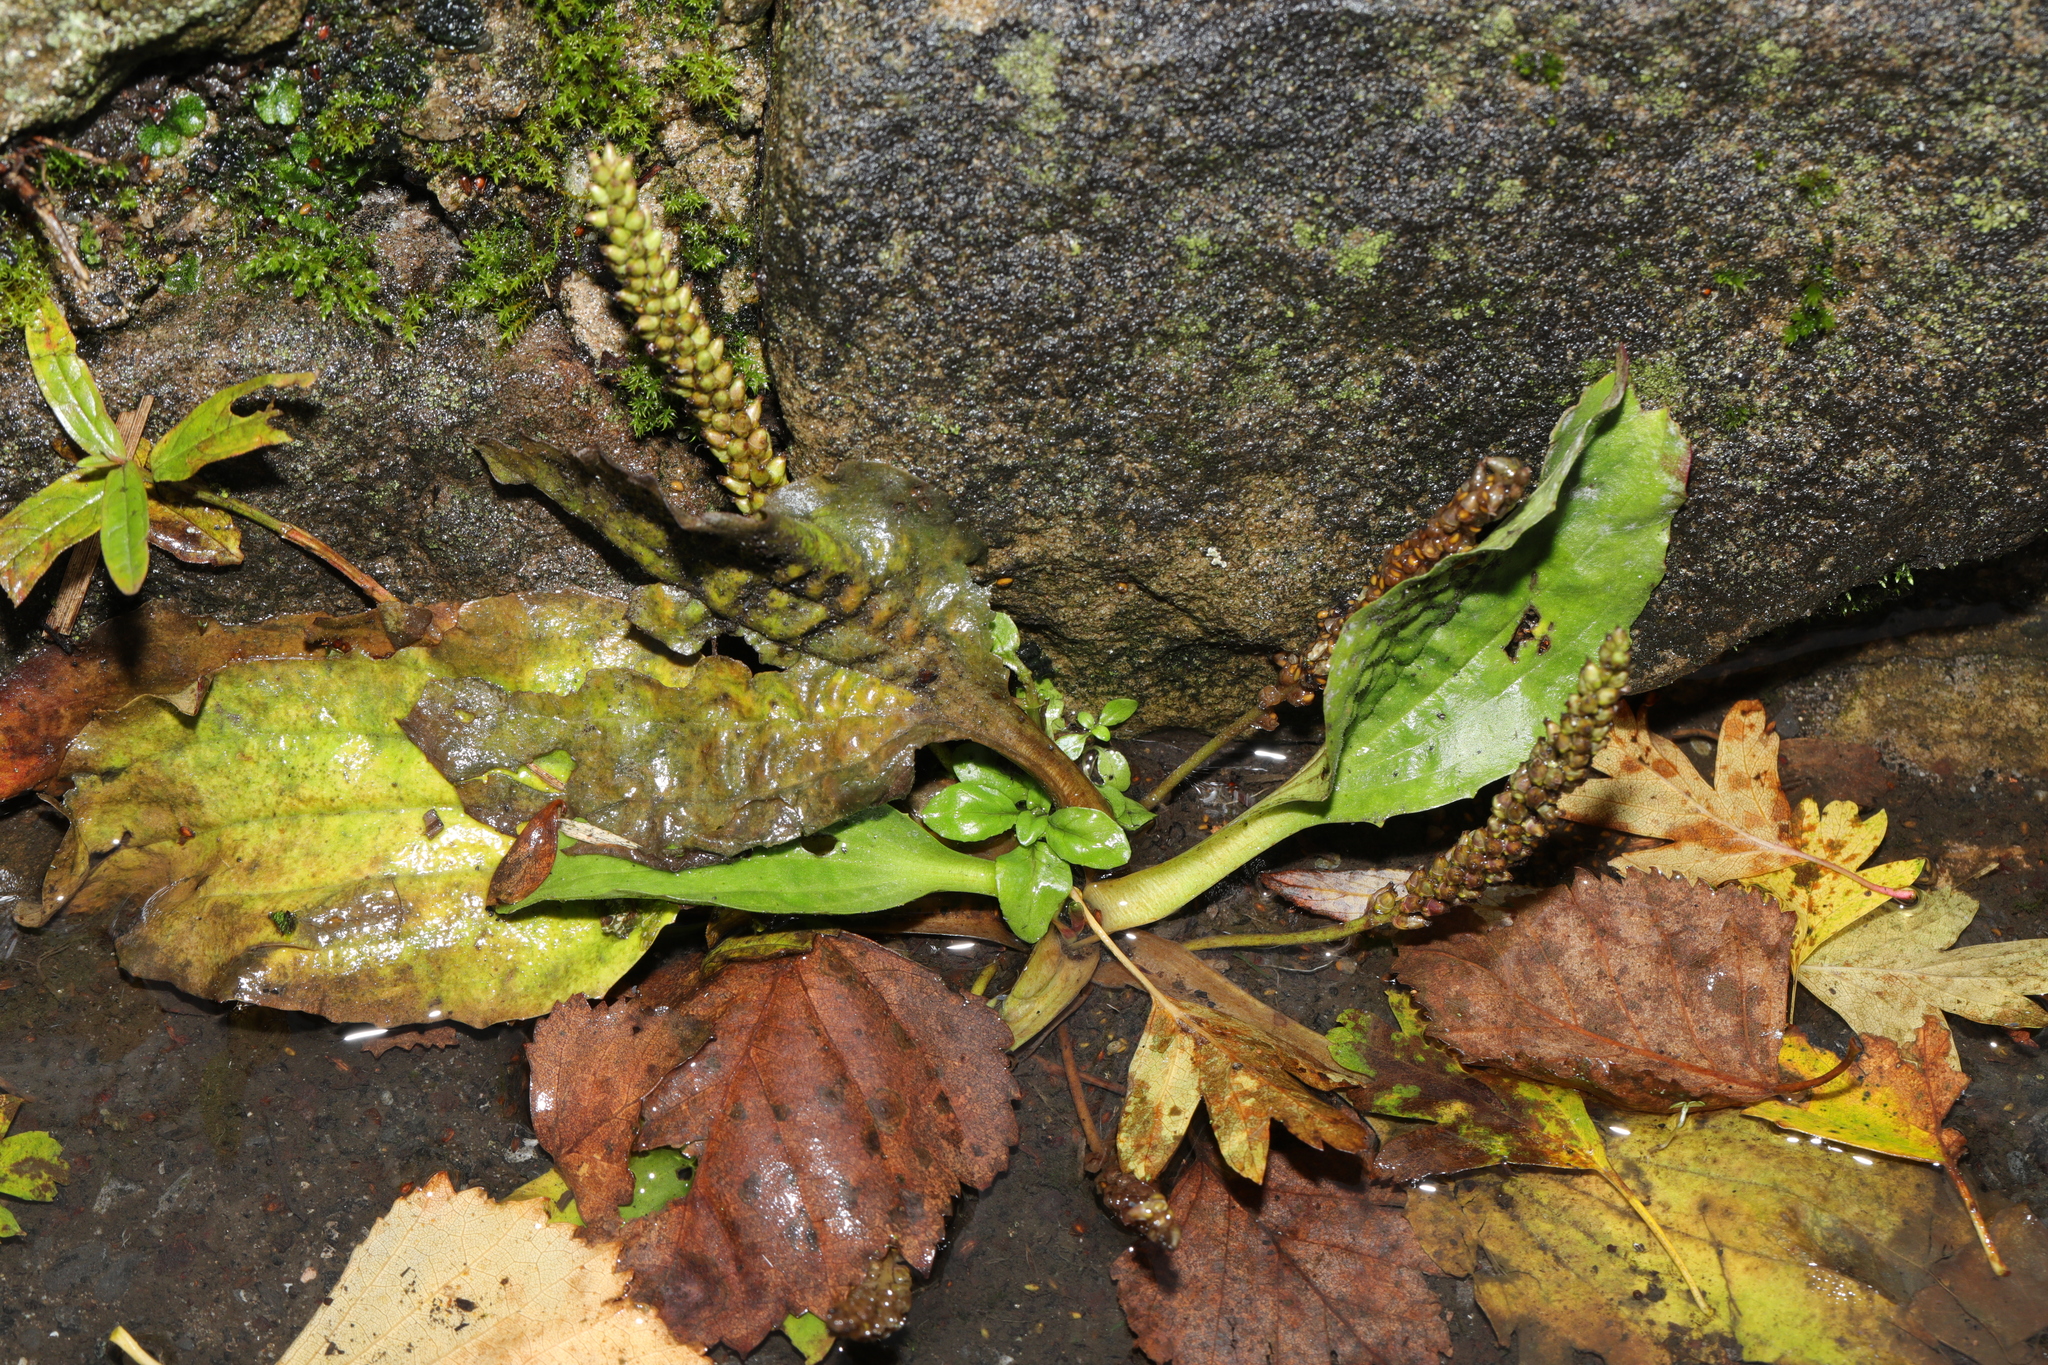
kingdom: Plantae
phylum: Tracheophyta
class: Magnoliopsida
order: Lamiales
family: Plantaginaceae
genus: Plantago
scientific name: Plantago major
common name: Common plantain
